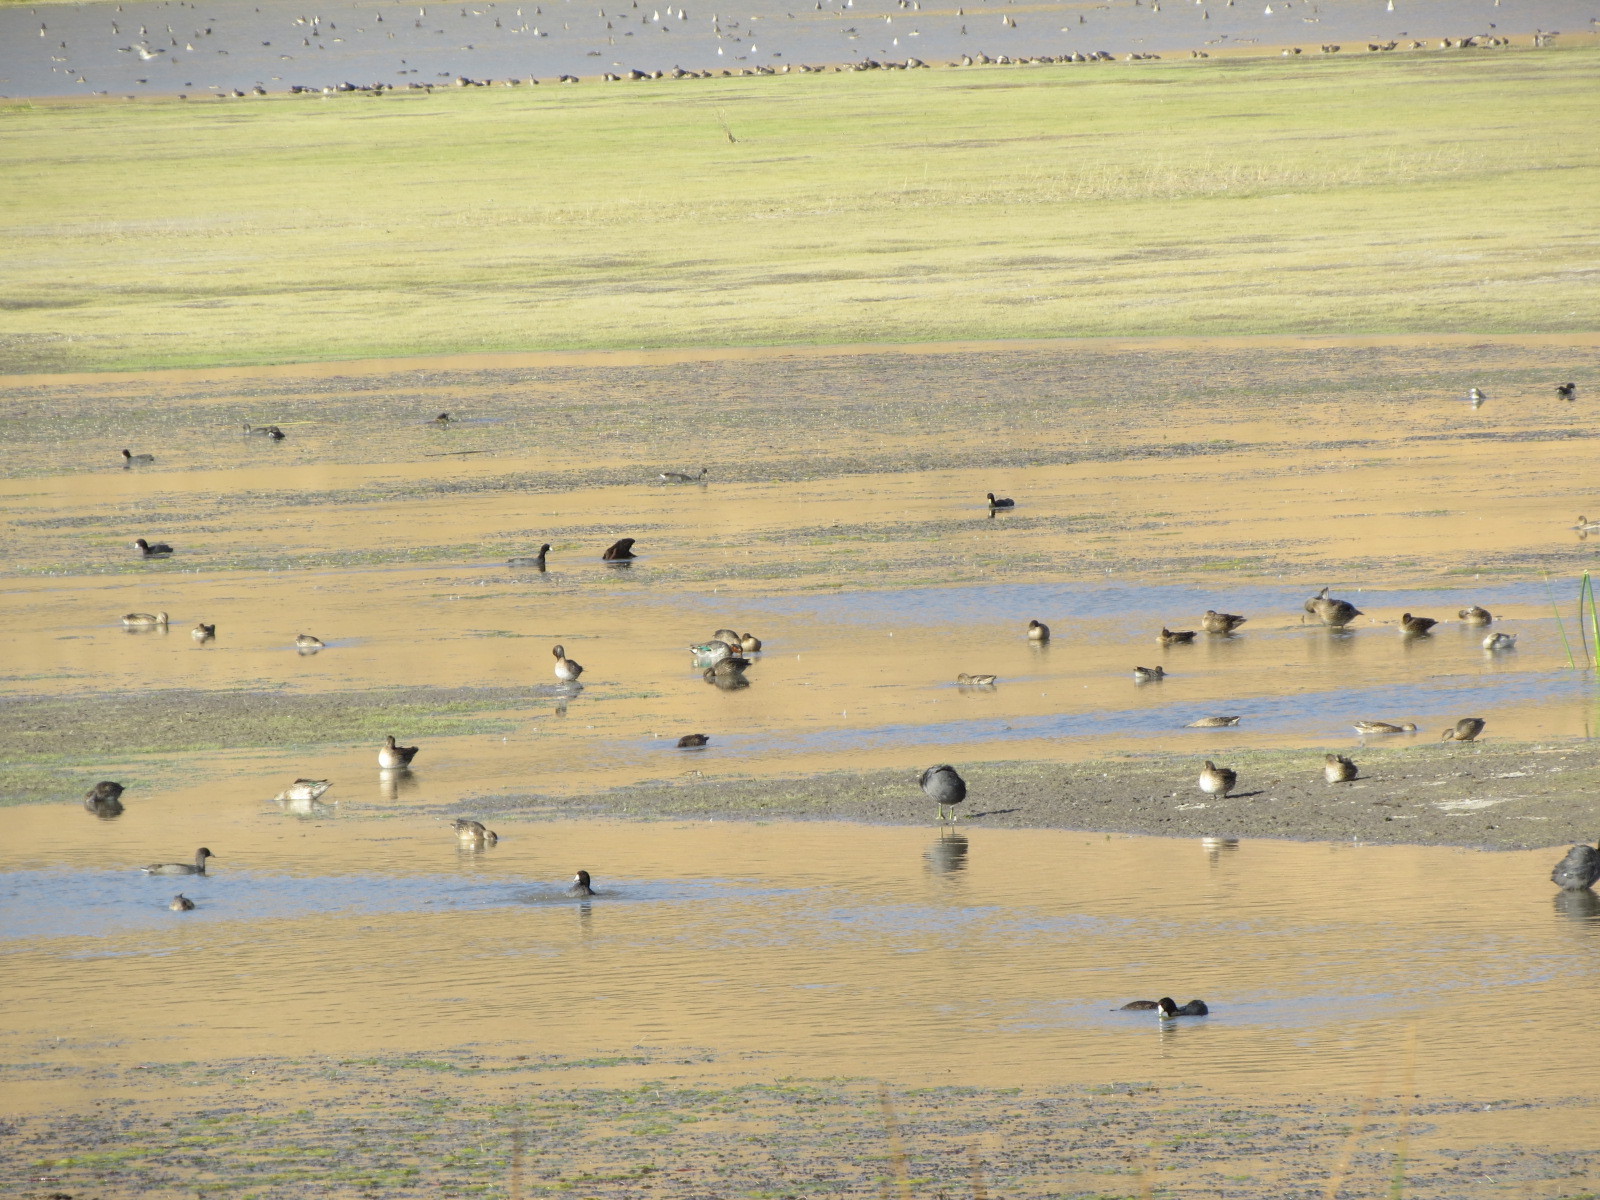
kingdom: Animalia
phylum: Chordata
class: Aves
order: Anseriformes
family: Anatidae
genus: Anas
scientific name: Anas carolinensis
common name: Green-winged teal
